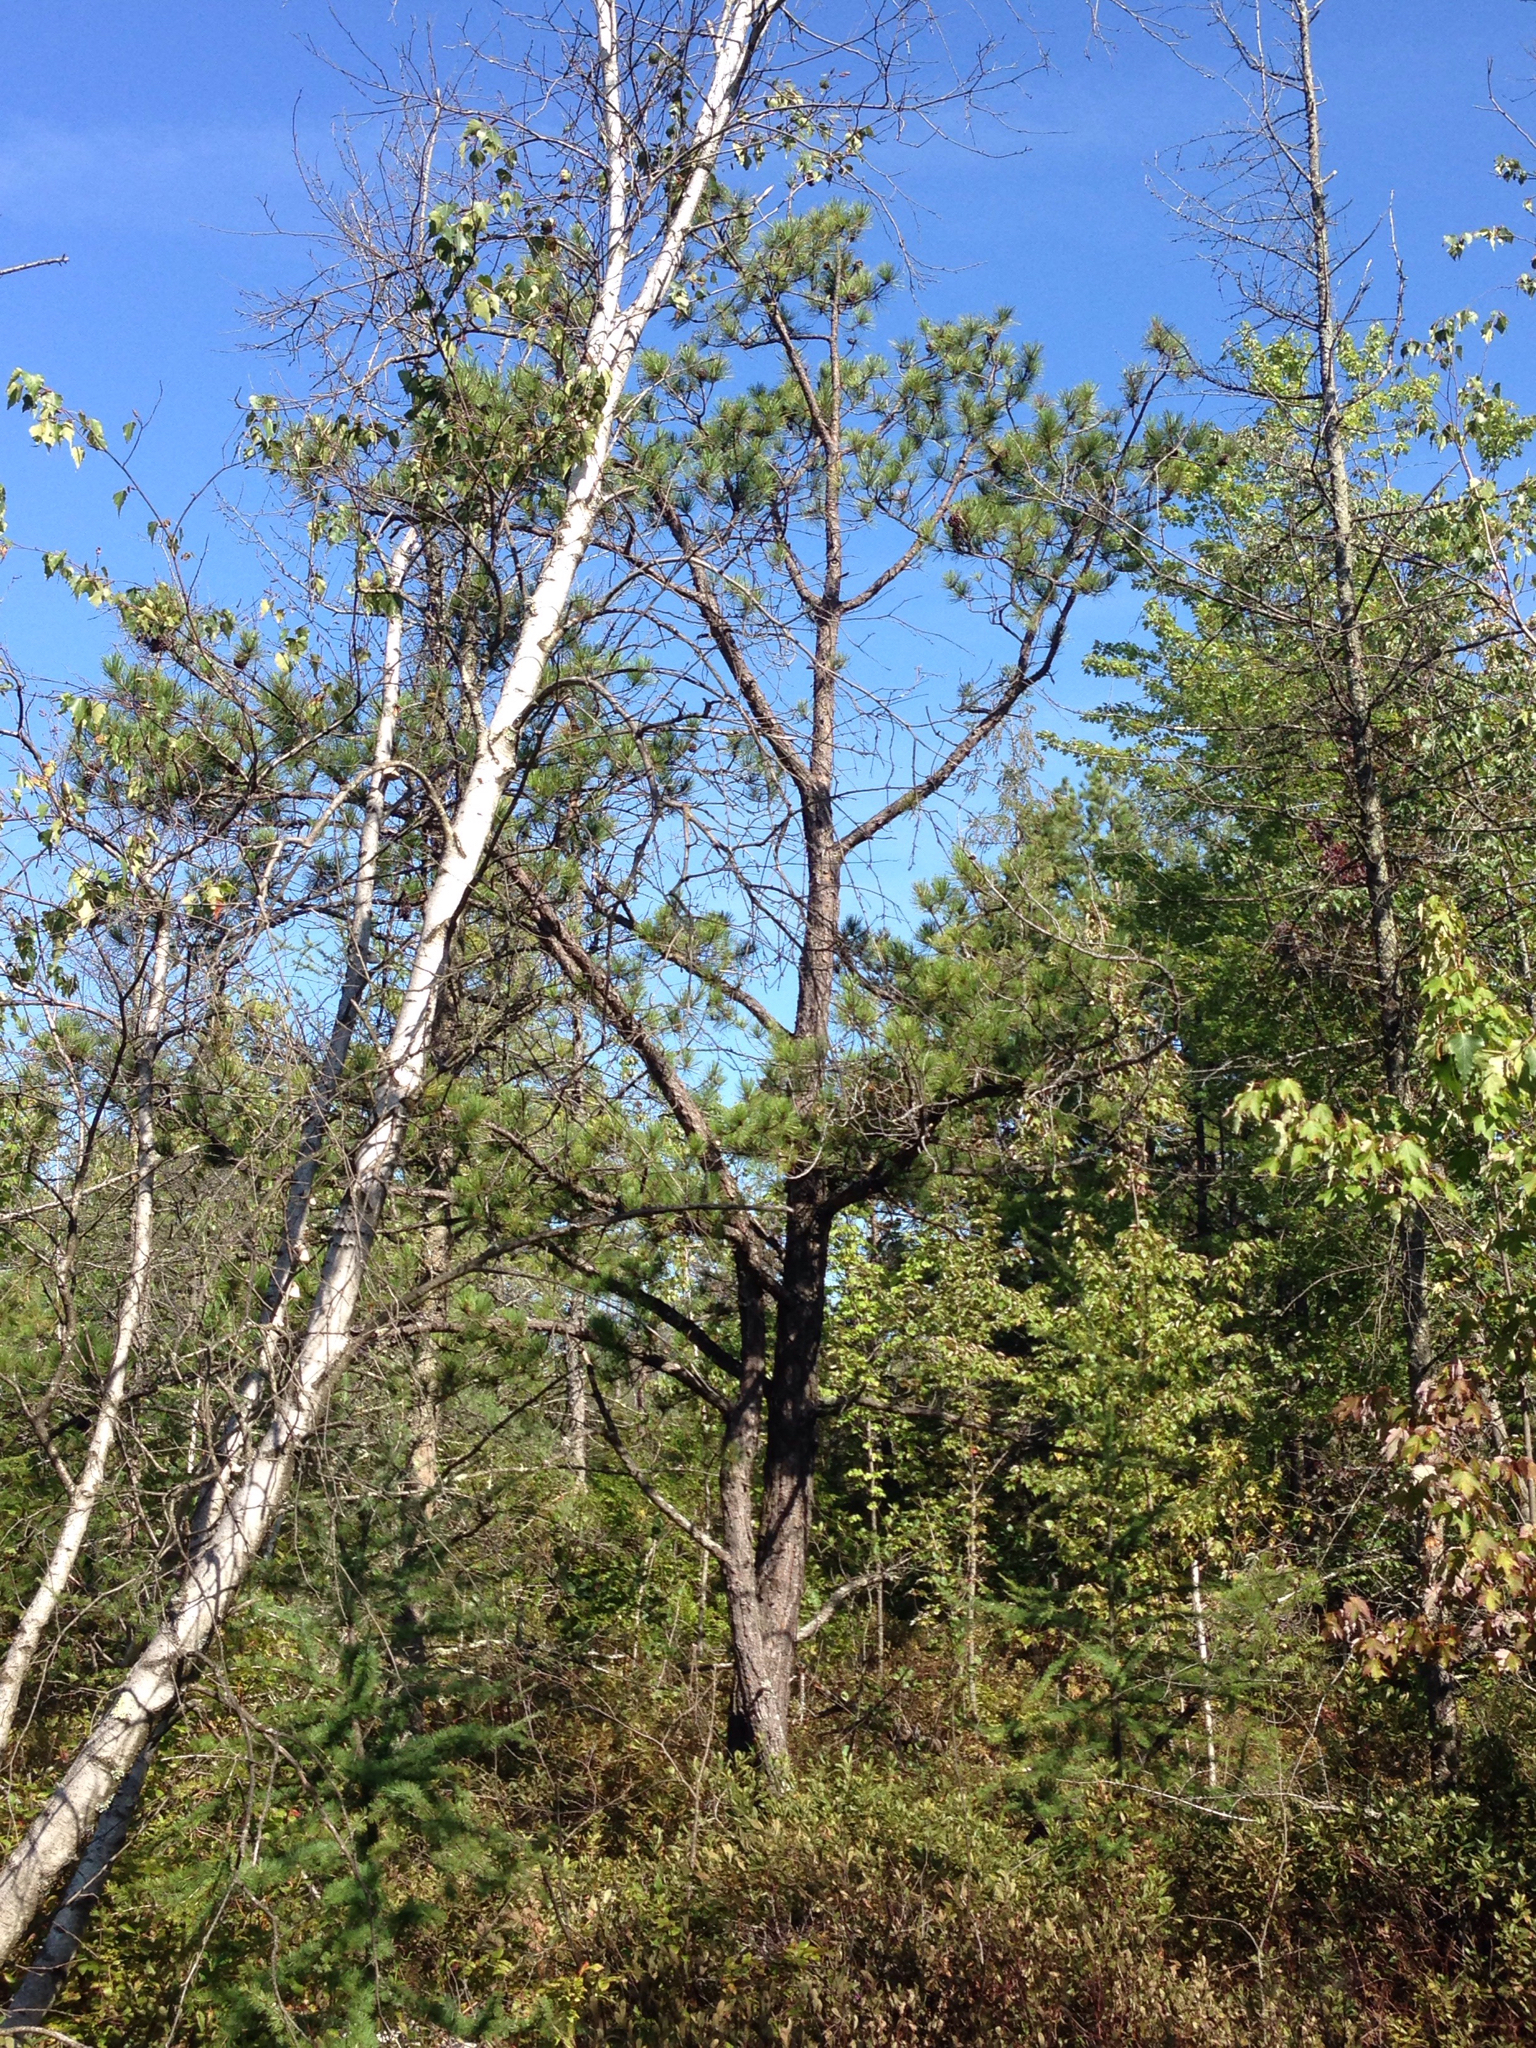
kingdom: Plantae
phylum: Tracheophyta
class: Pinopsida
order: Pinales
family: Pinaceae
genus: Pinus
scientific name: Pinus rigida
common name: Pitch pine
